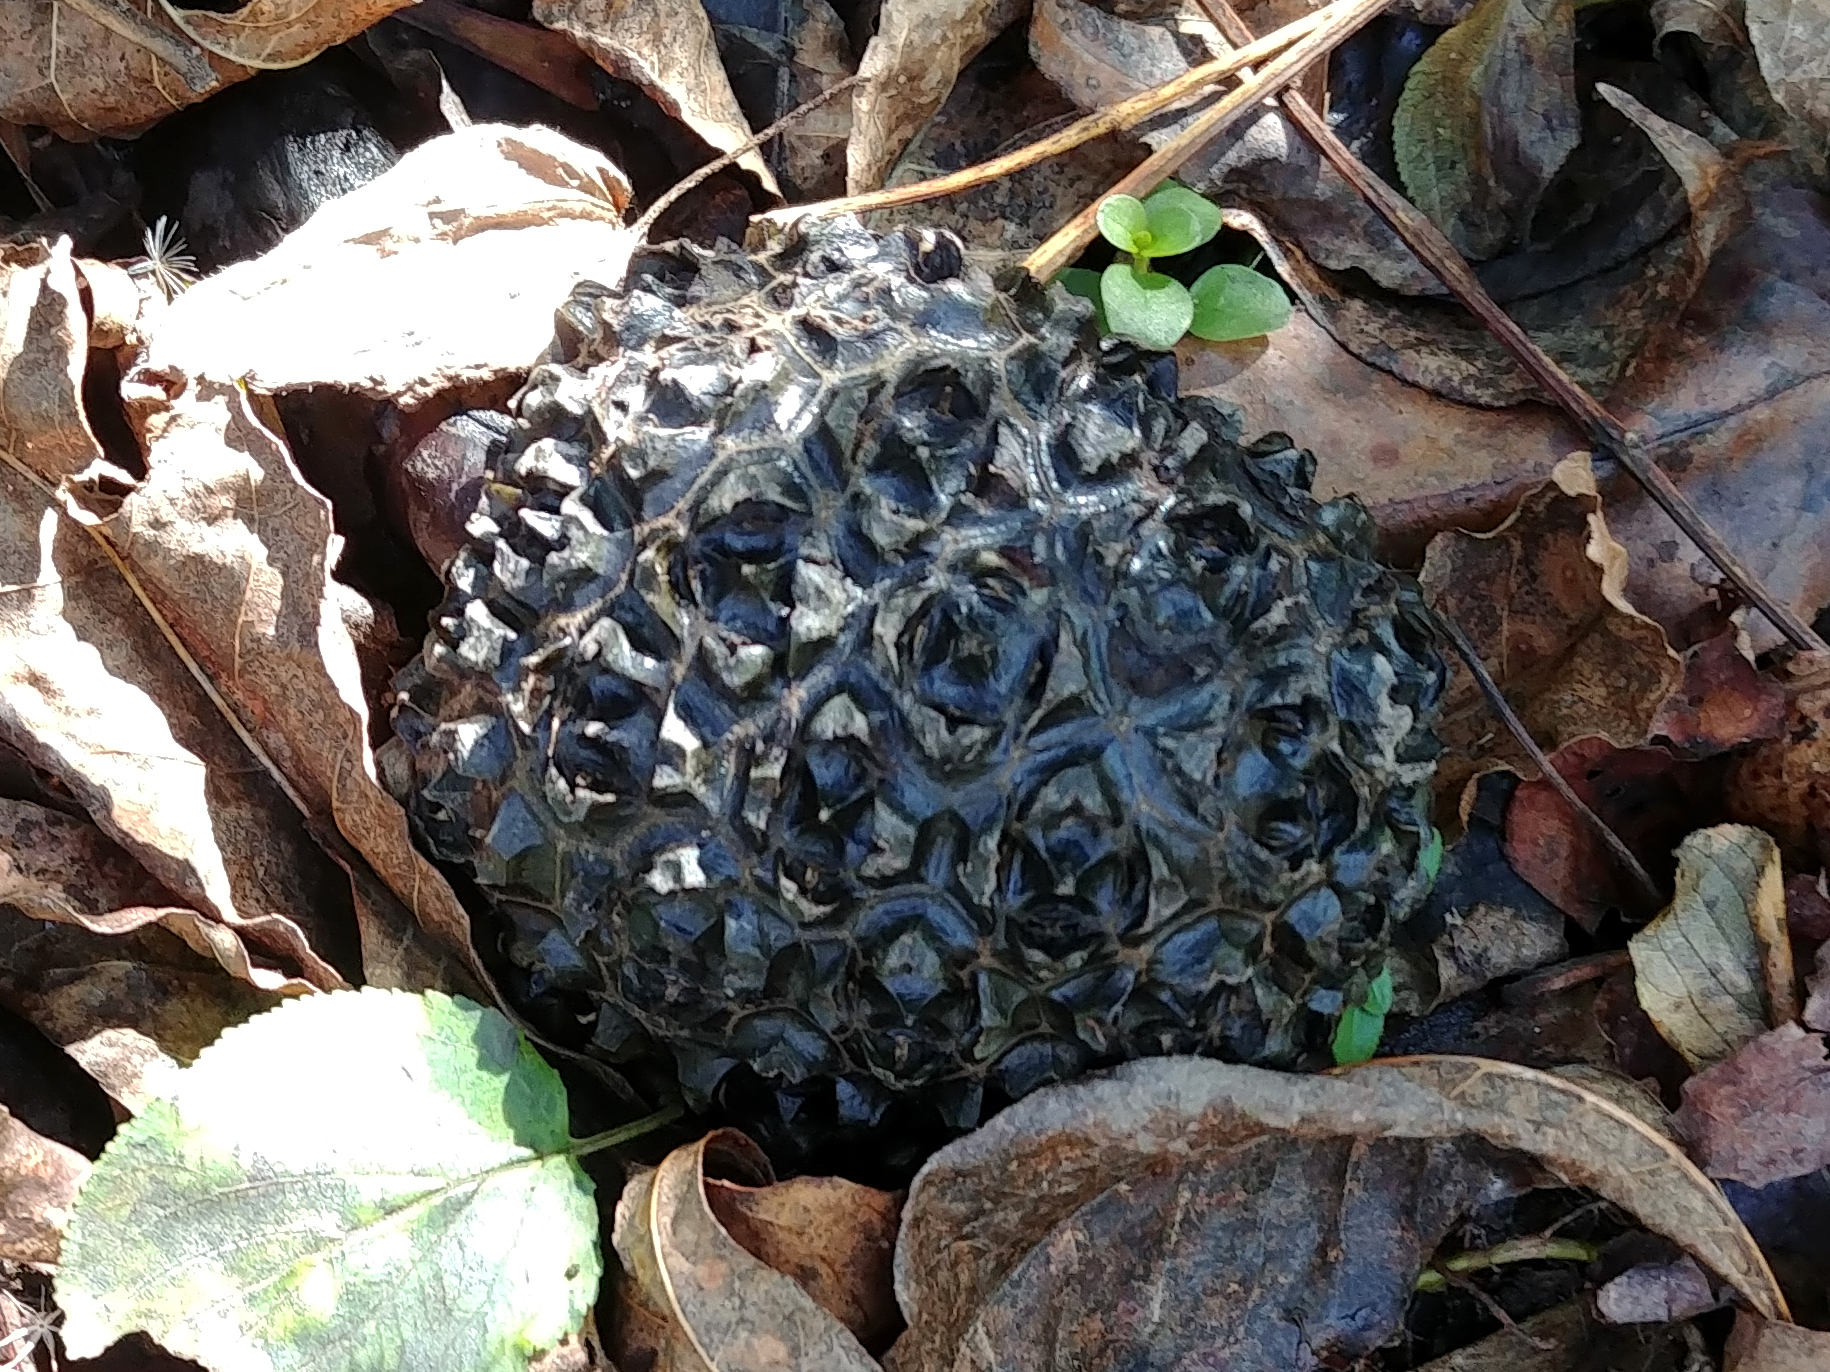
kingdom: Plantae
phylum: Tracheophyta
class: Liliopsida
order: Alismatales
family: Araceae
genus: Symplocarpus
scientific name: Symplocarpus foetidus
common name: Eastern skunk cabbage
